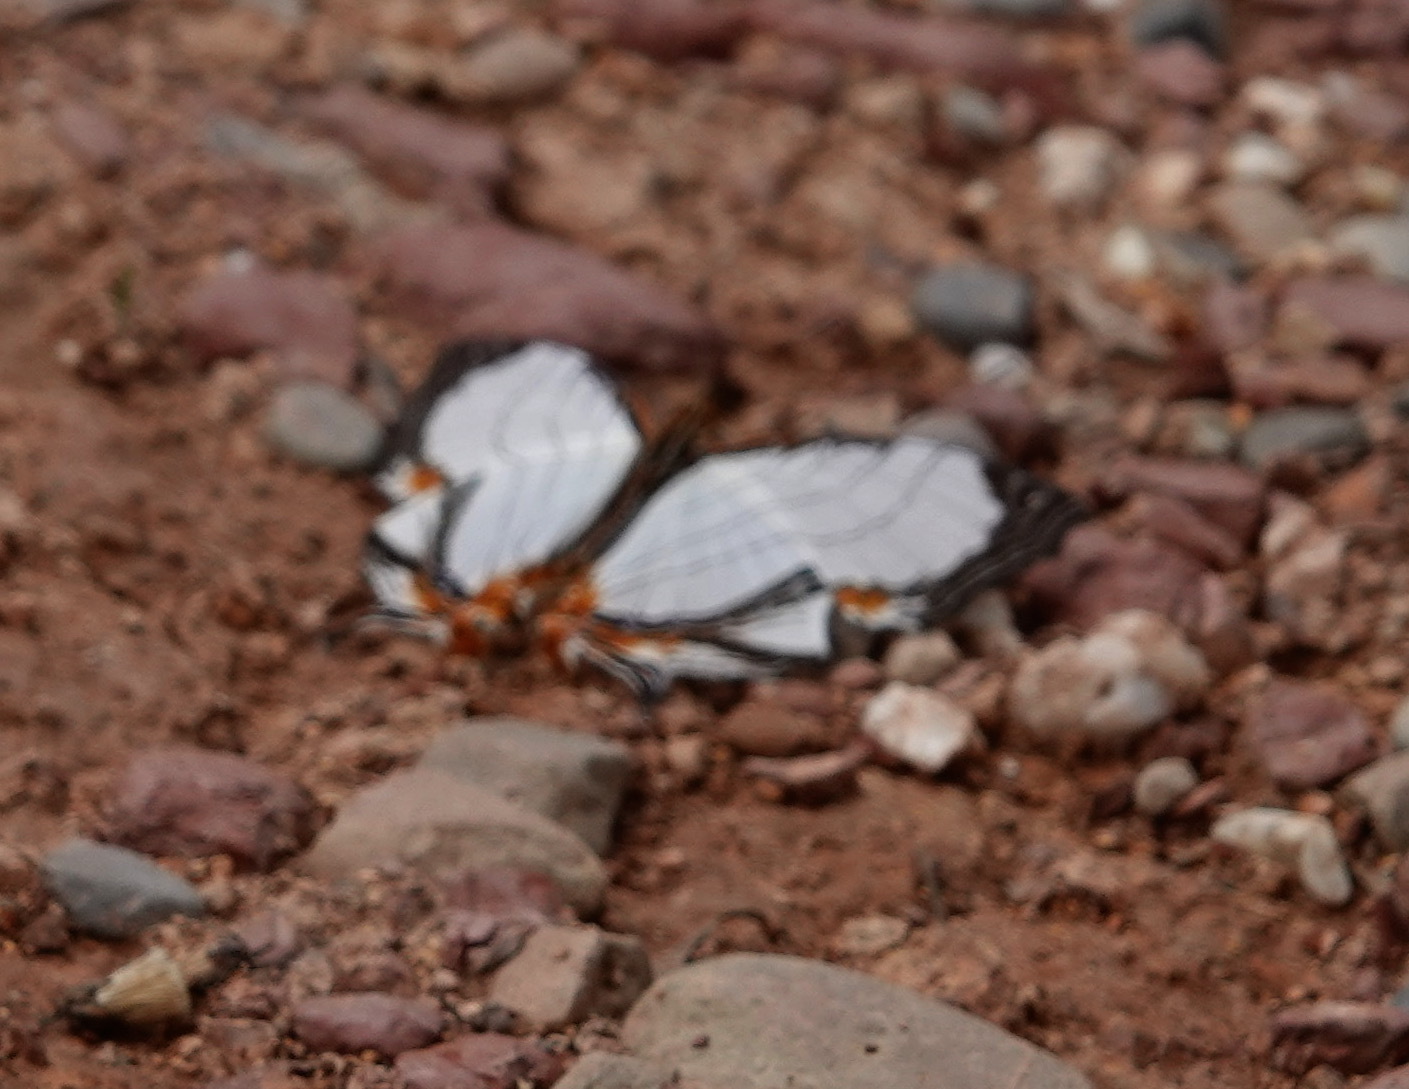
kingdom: Animalia
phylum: Arthropoda
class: Insecta
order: Lepidoptera
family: Nymphalidae
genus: Cyrestis
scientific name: Cyrestis nivea
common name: Straight line mapwing
